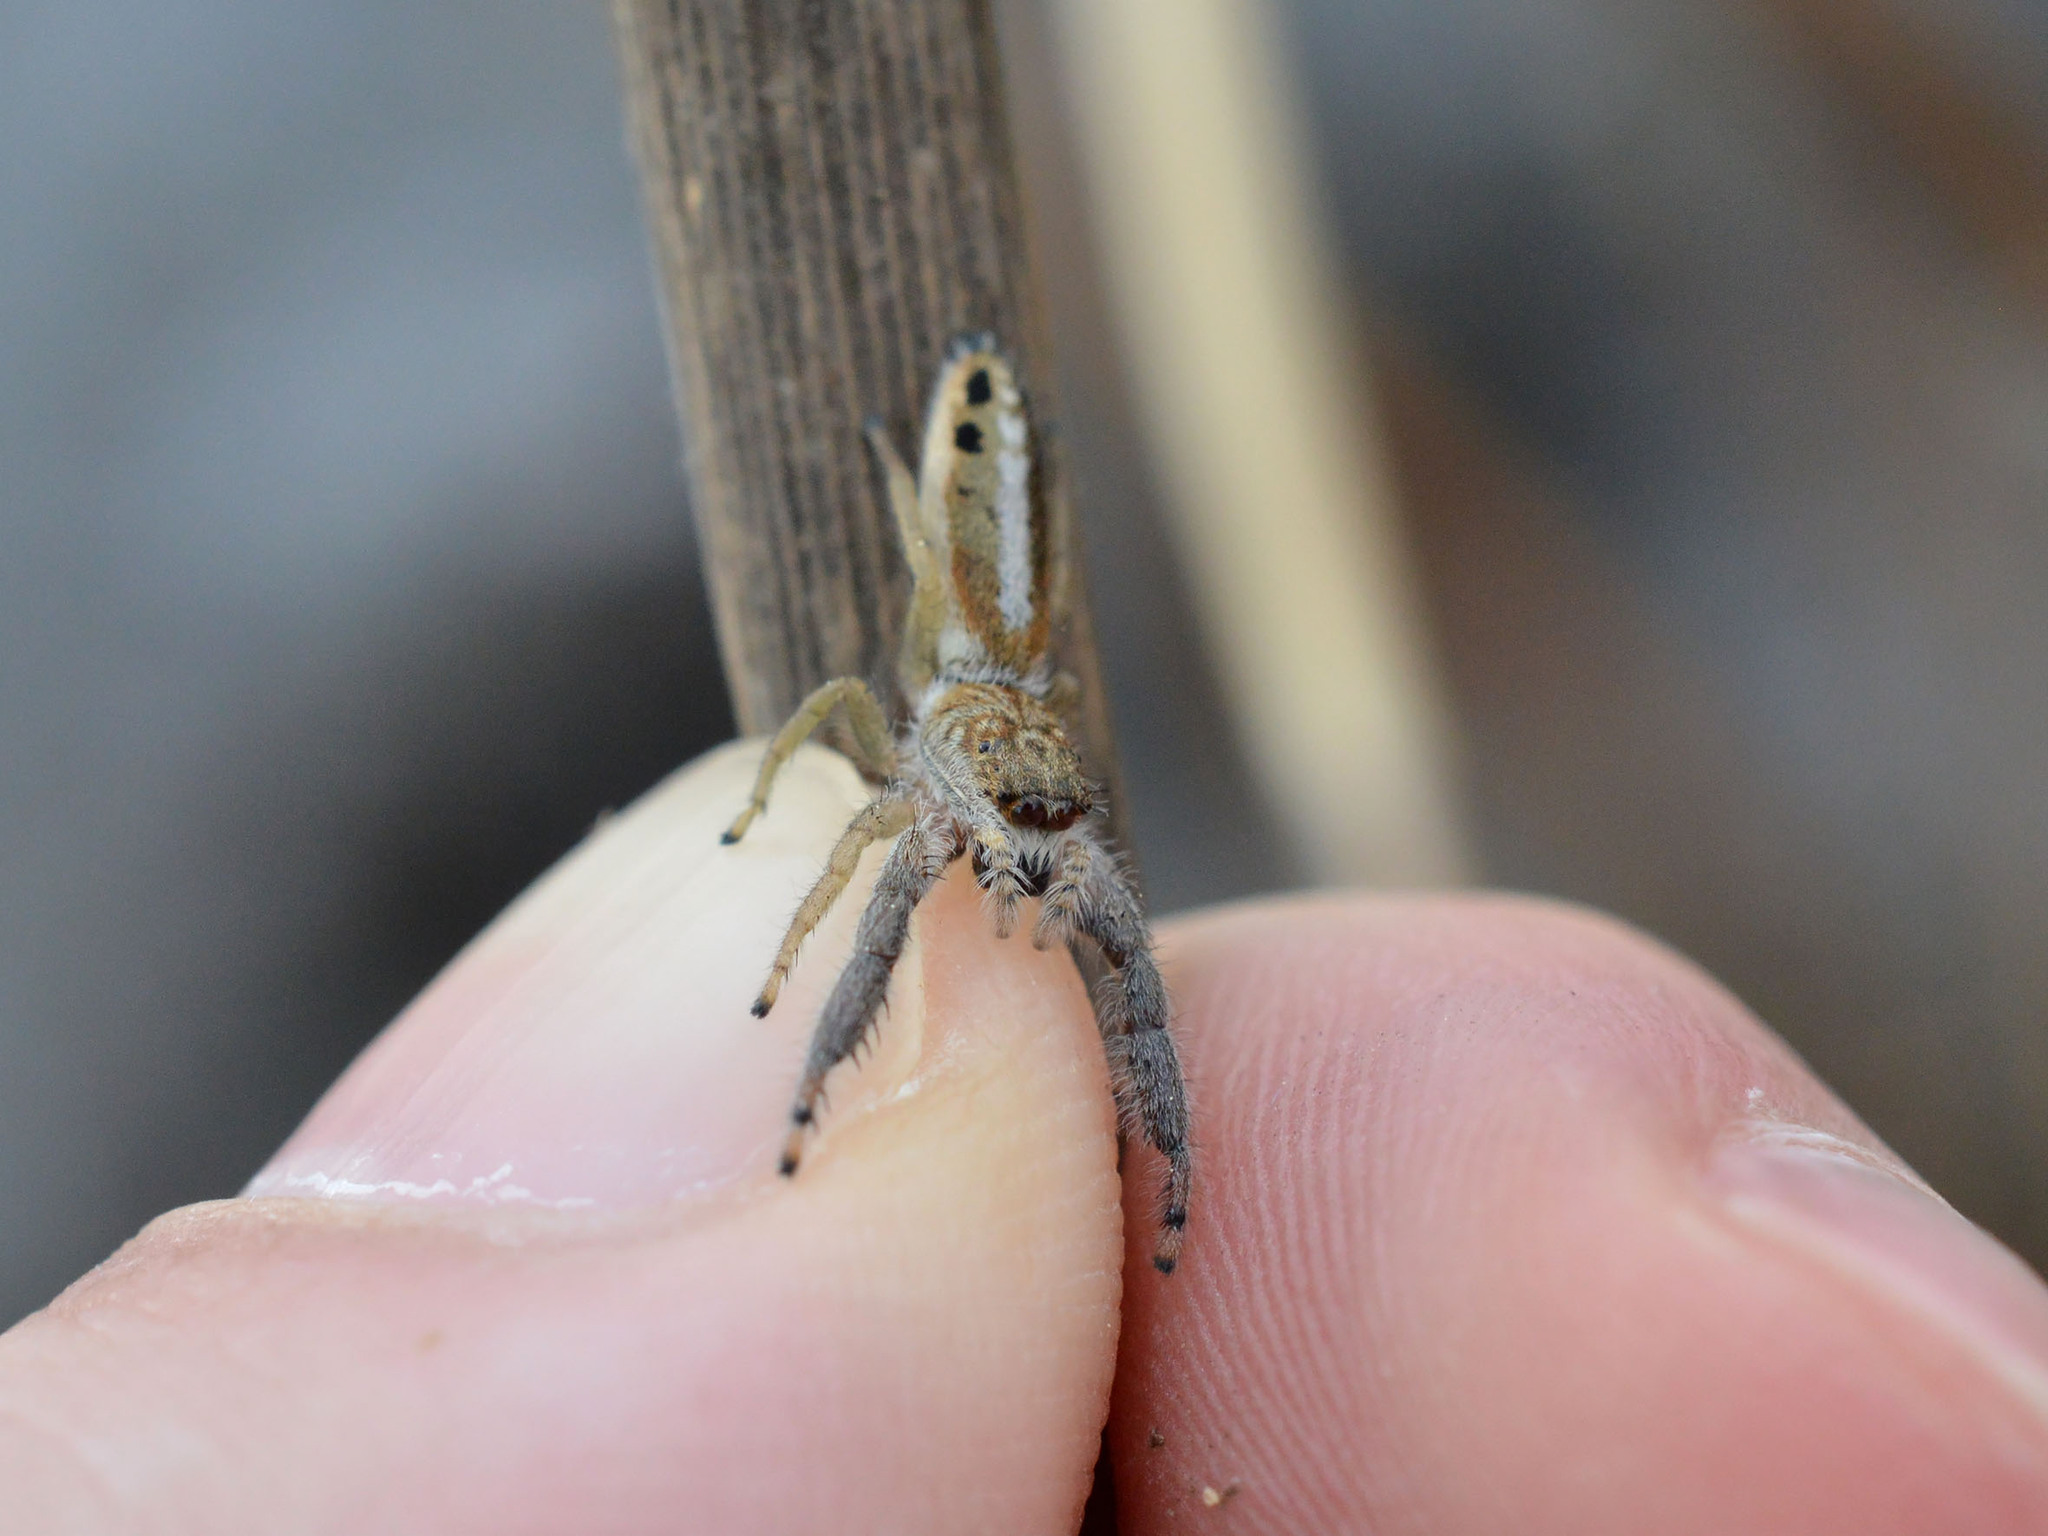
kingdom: Animalia
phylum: Arthropoda
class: Arachnida
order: Araneae
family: Salticidae
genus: Mendoza
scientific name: Mendoza canestrinii
